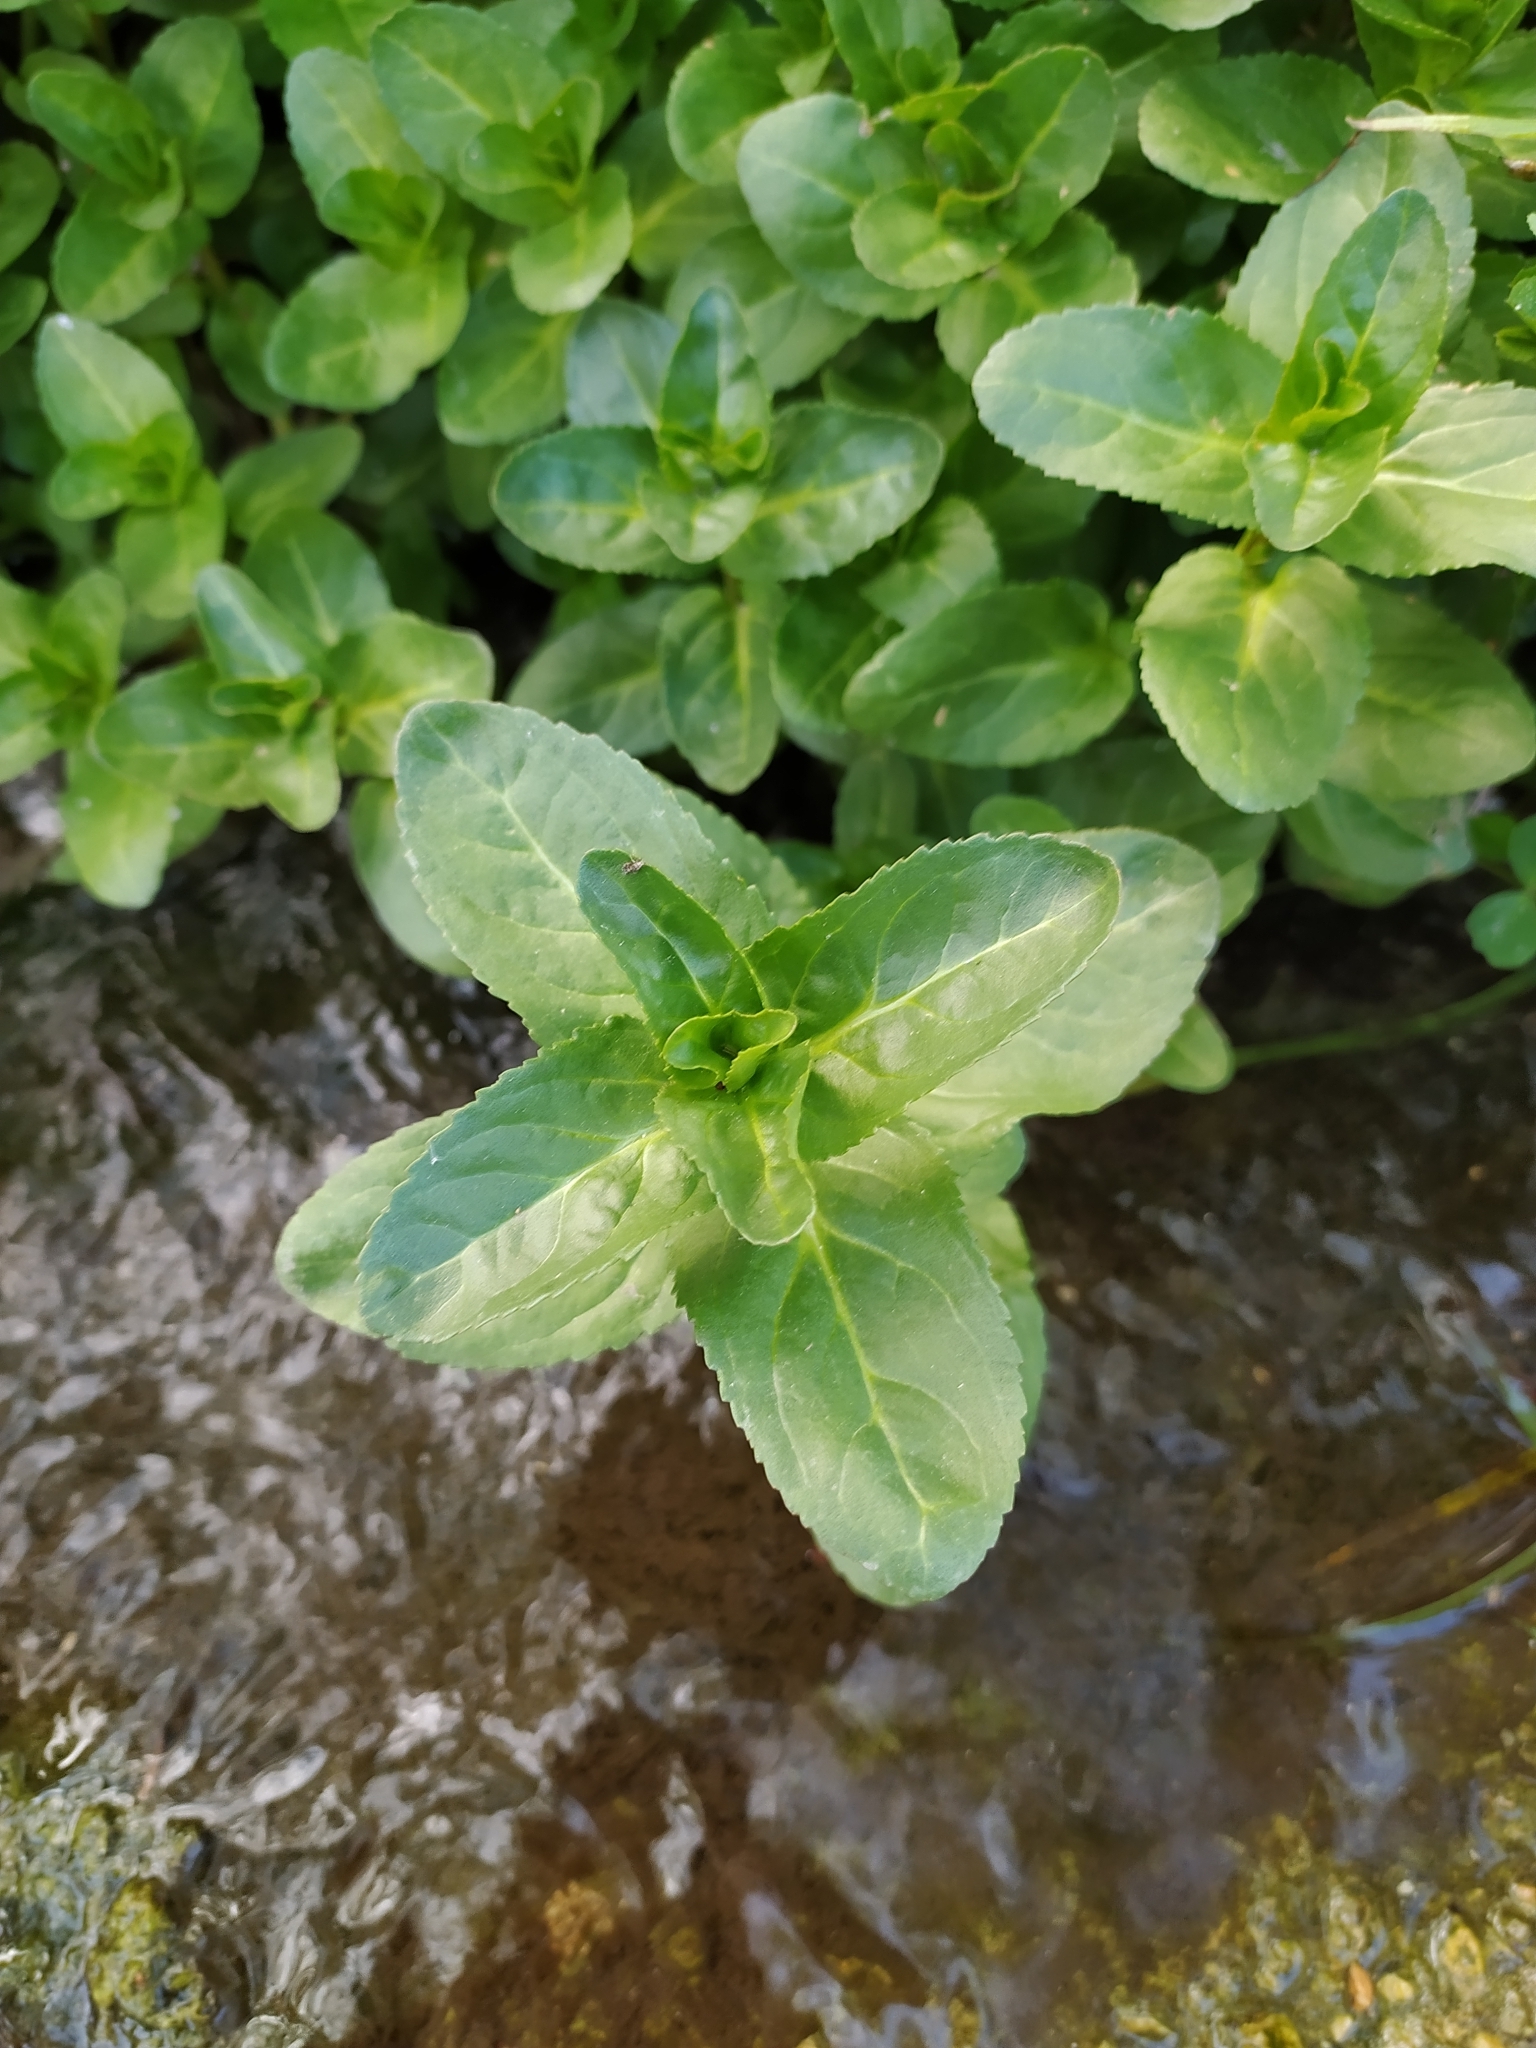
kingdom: Plantae
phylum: Tracheophyta
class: Magnoliopsida
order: Lamiales
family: Plantaginaceae
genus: Veronica
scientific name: Veronica beccabunga
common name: Brooklime
